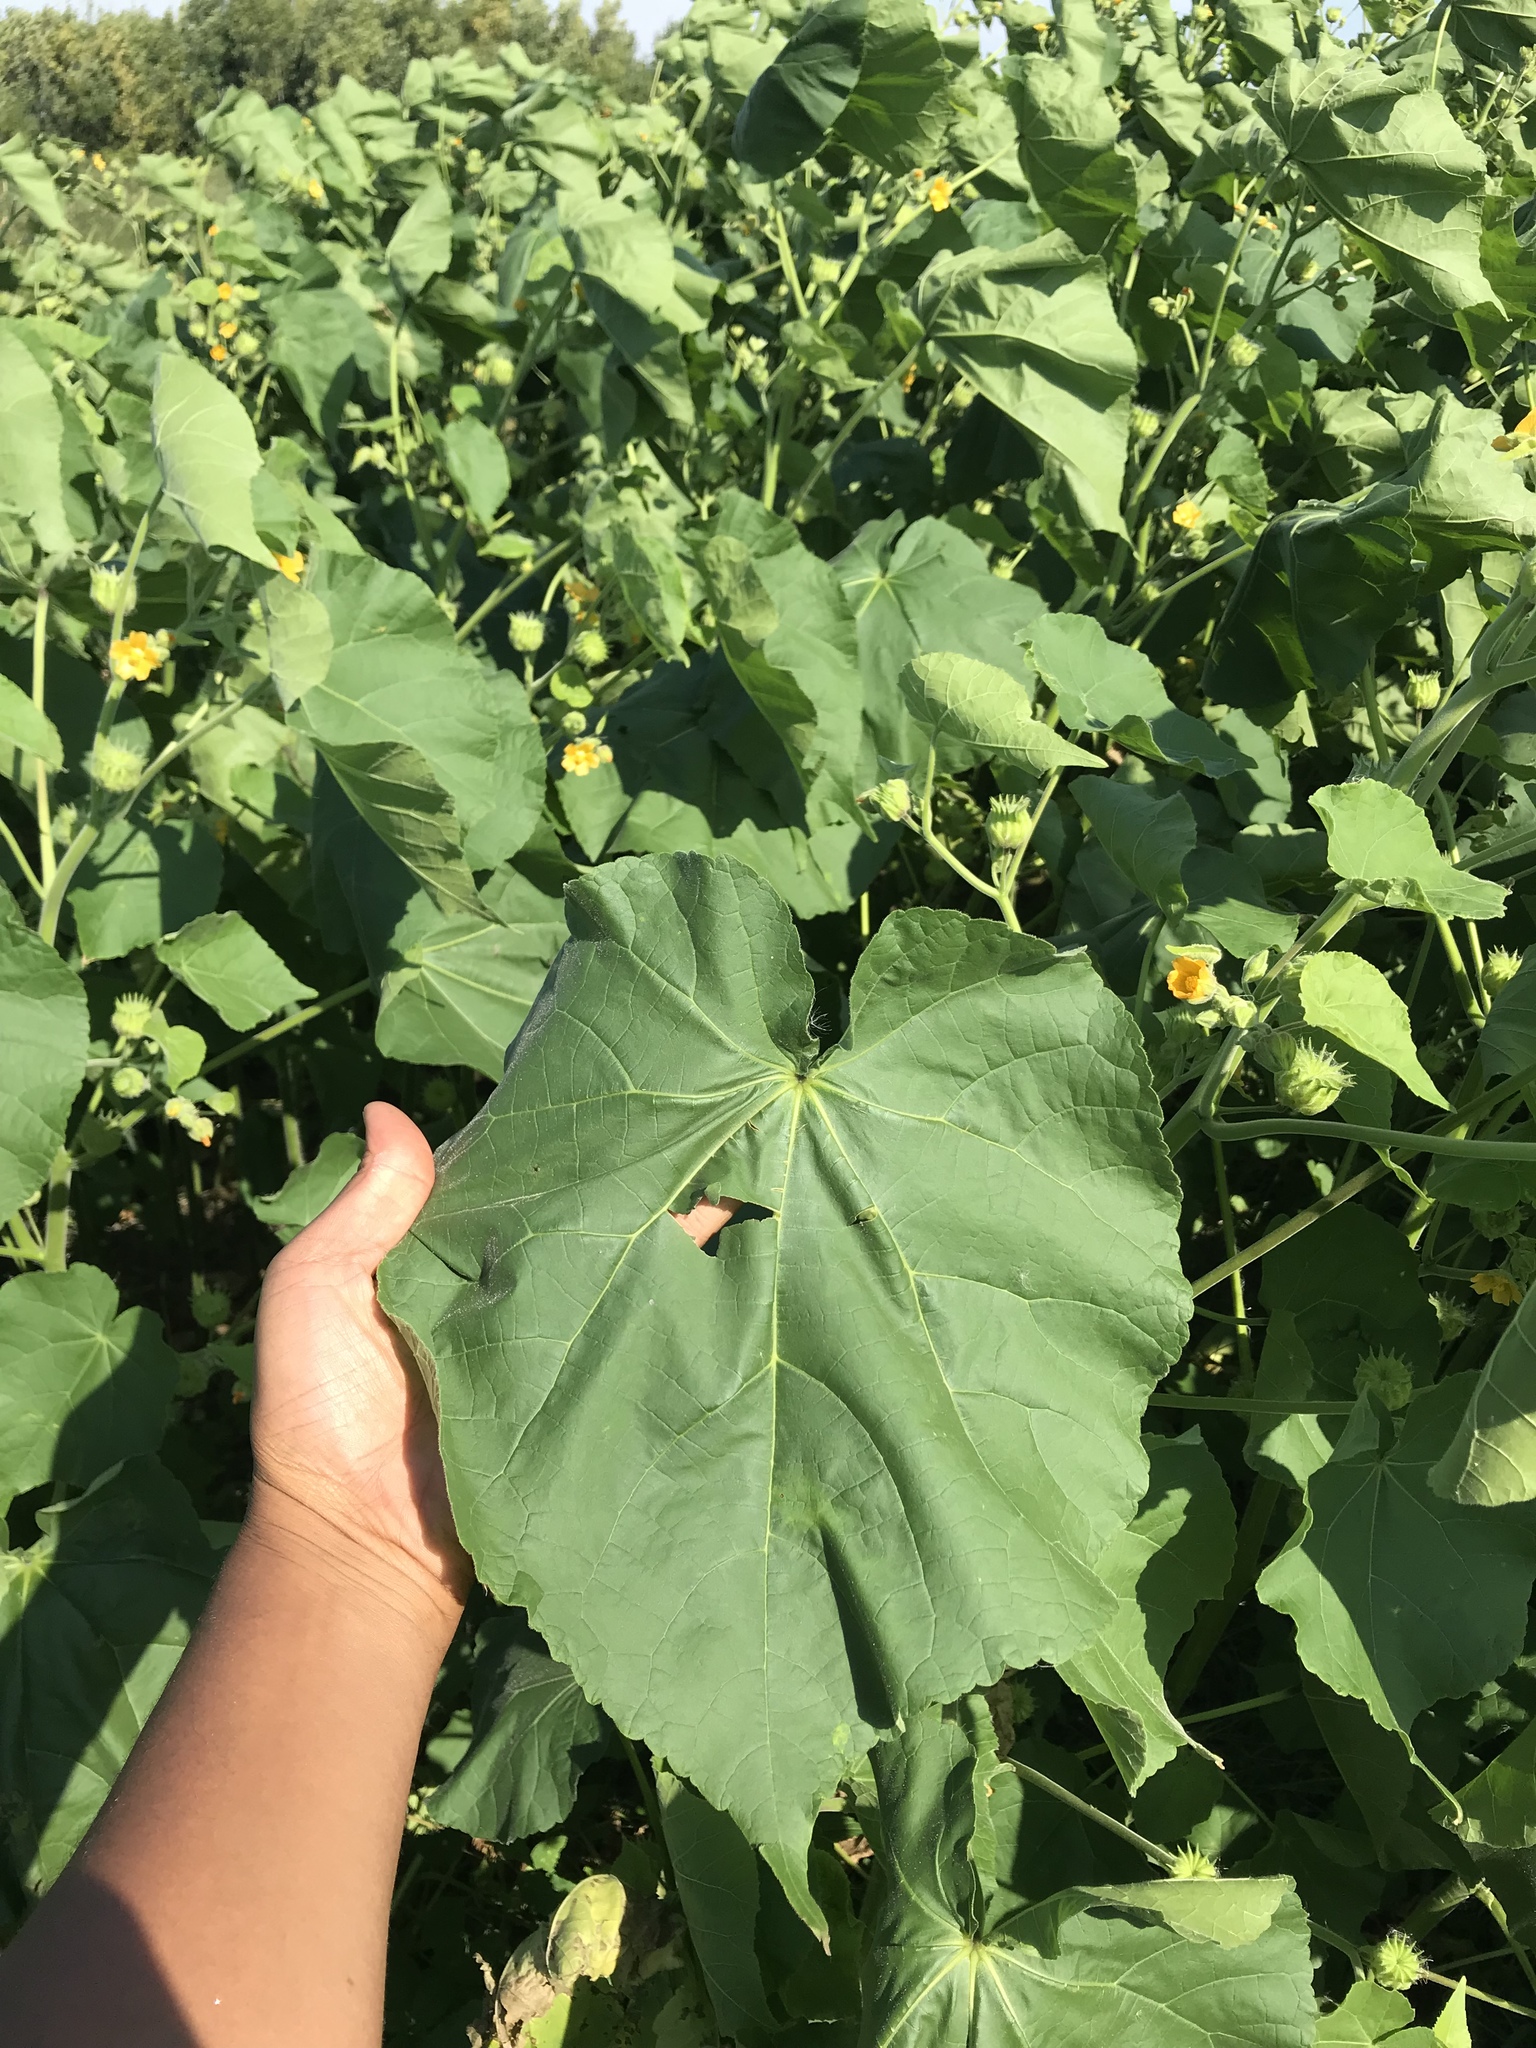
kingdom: Plantae
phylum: Tracheophyta
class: Magnoliopsida
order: Malvales
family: Malvaceae
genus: Abutilon
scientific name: Abutilon theophrasti
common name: Velvetleaf
